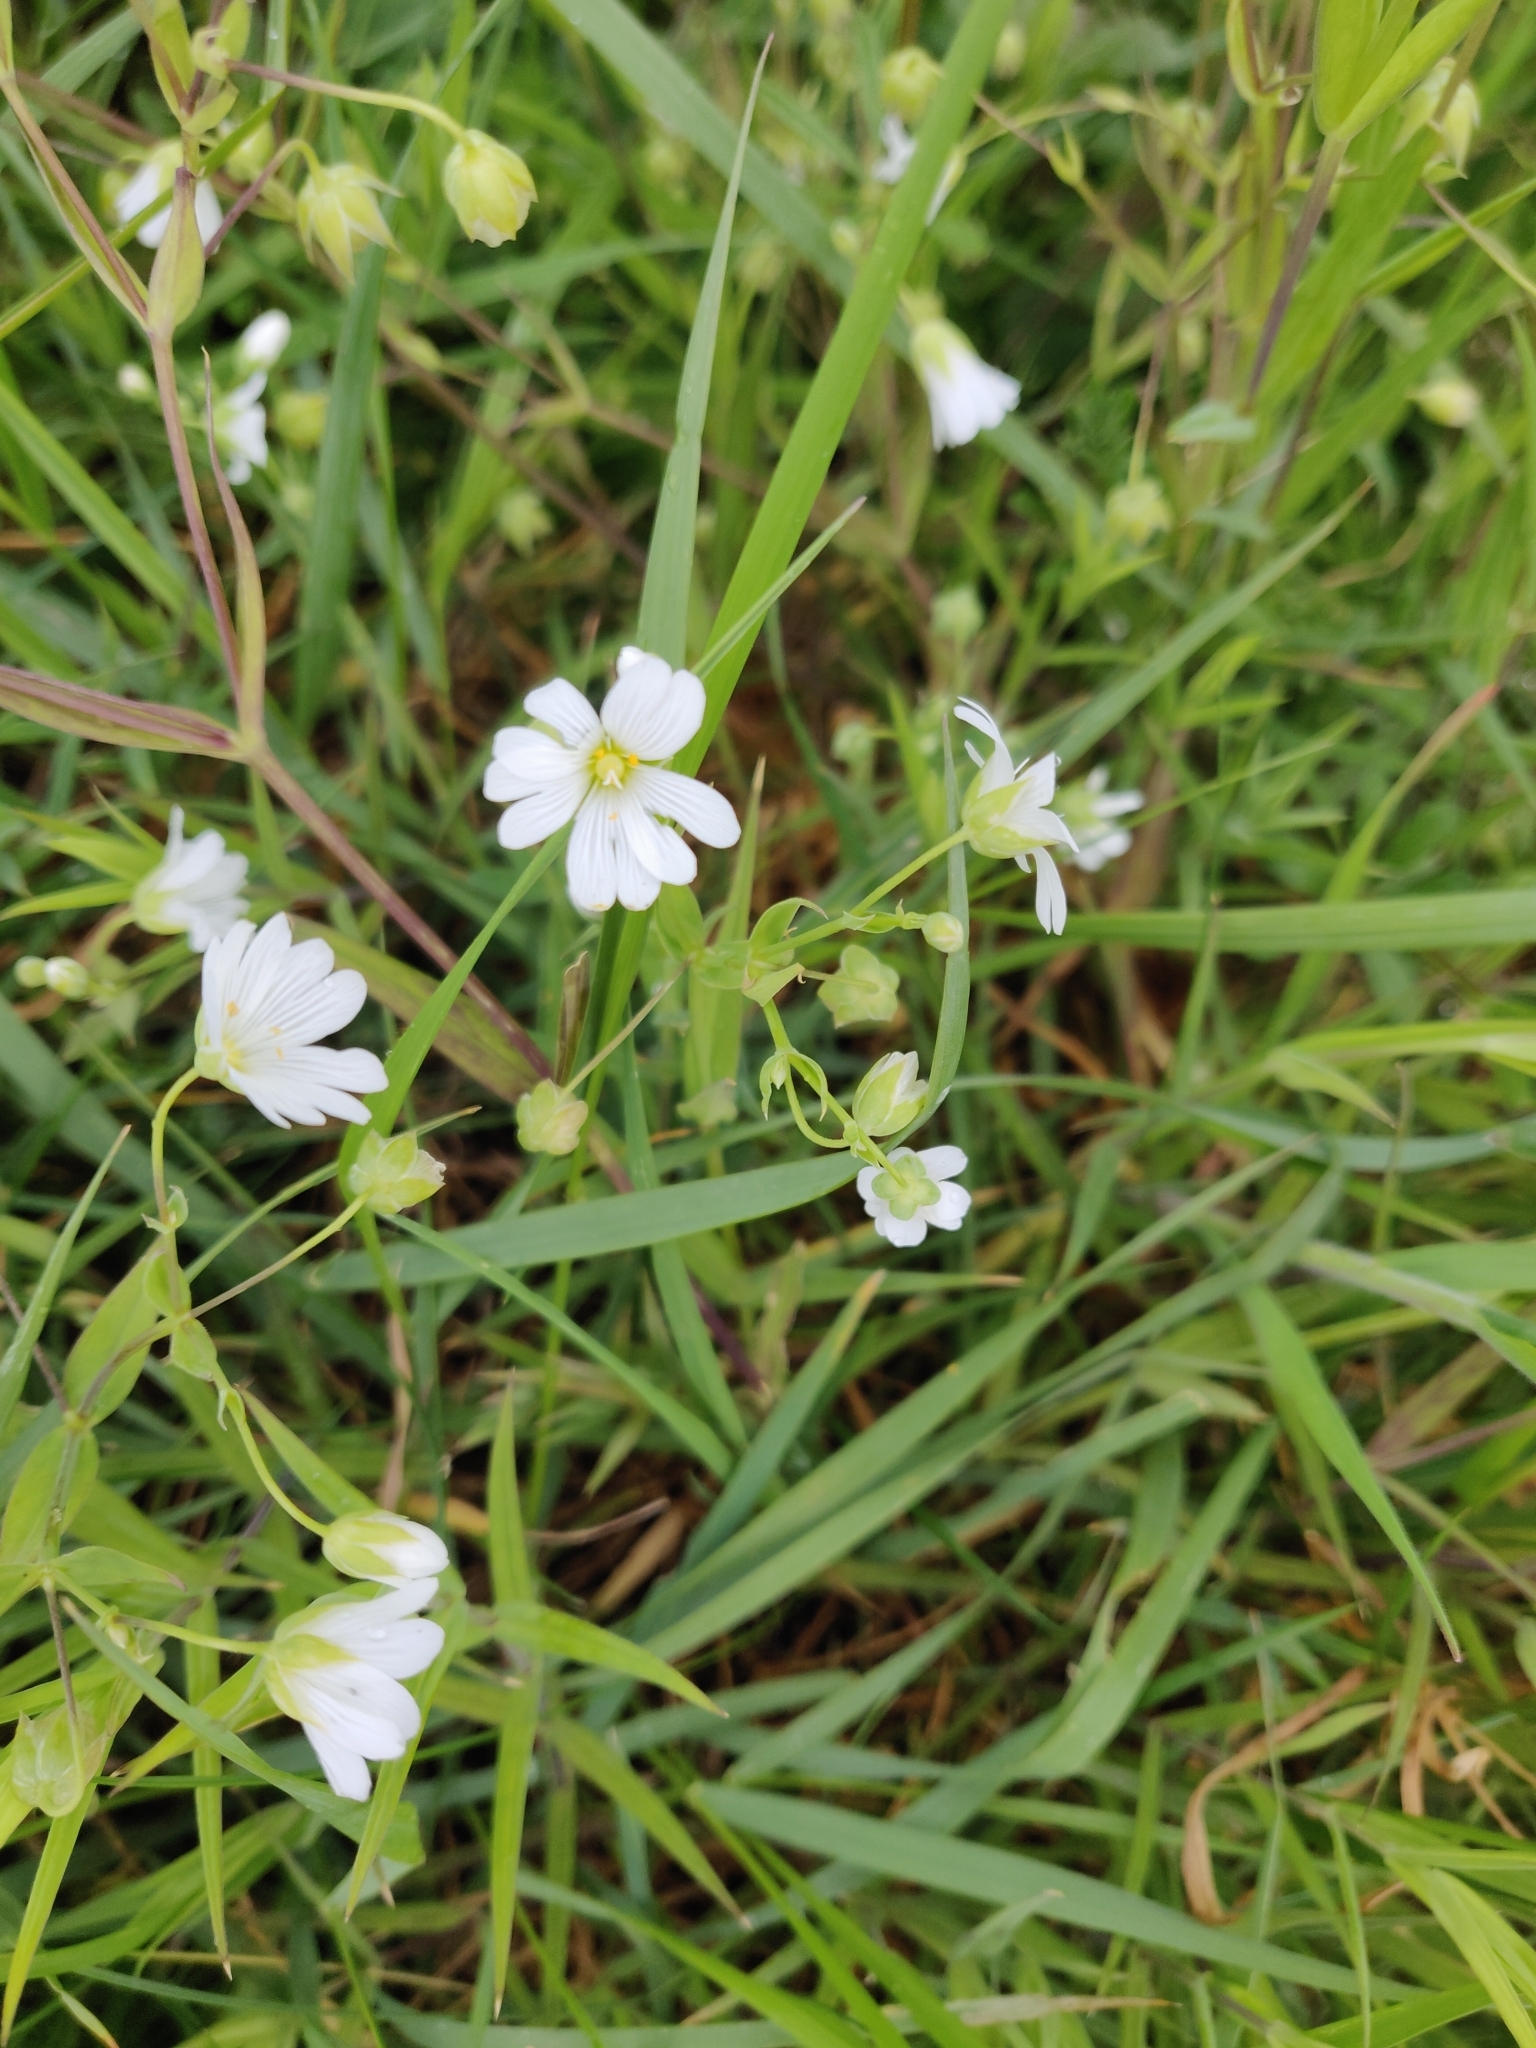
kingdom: Plantae
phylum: Tracheophyta
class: Magnoliopsida
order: Caryophyllales
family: Caryophyllaceae
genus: Rabelera
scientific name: Rabelera holostea
